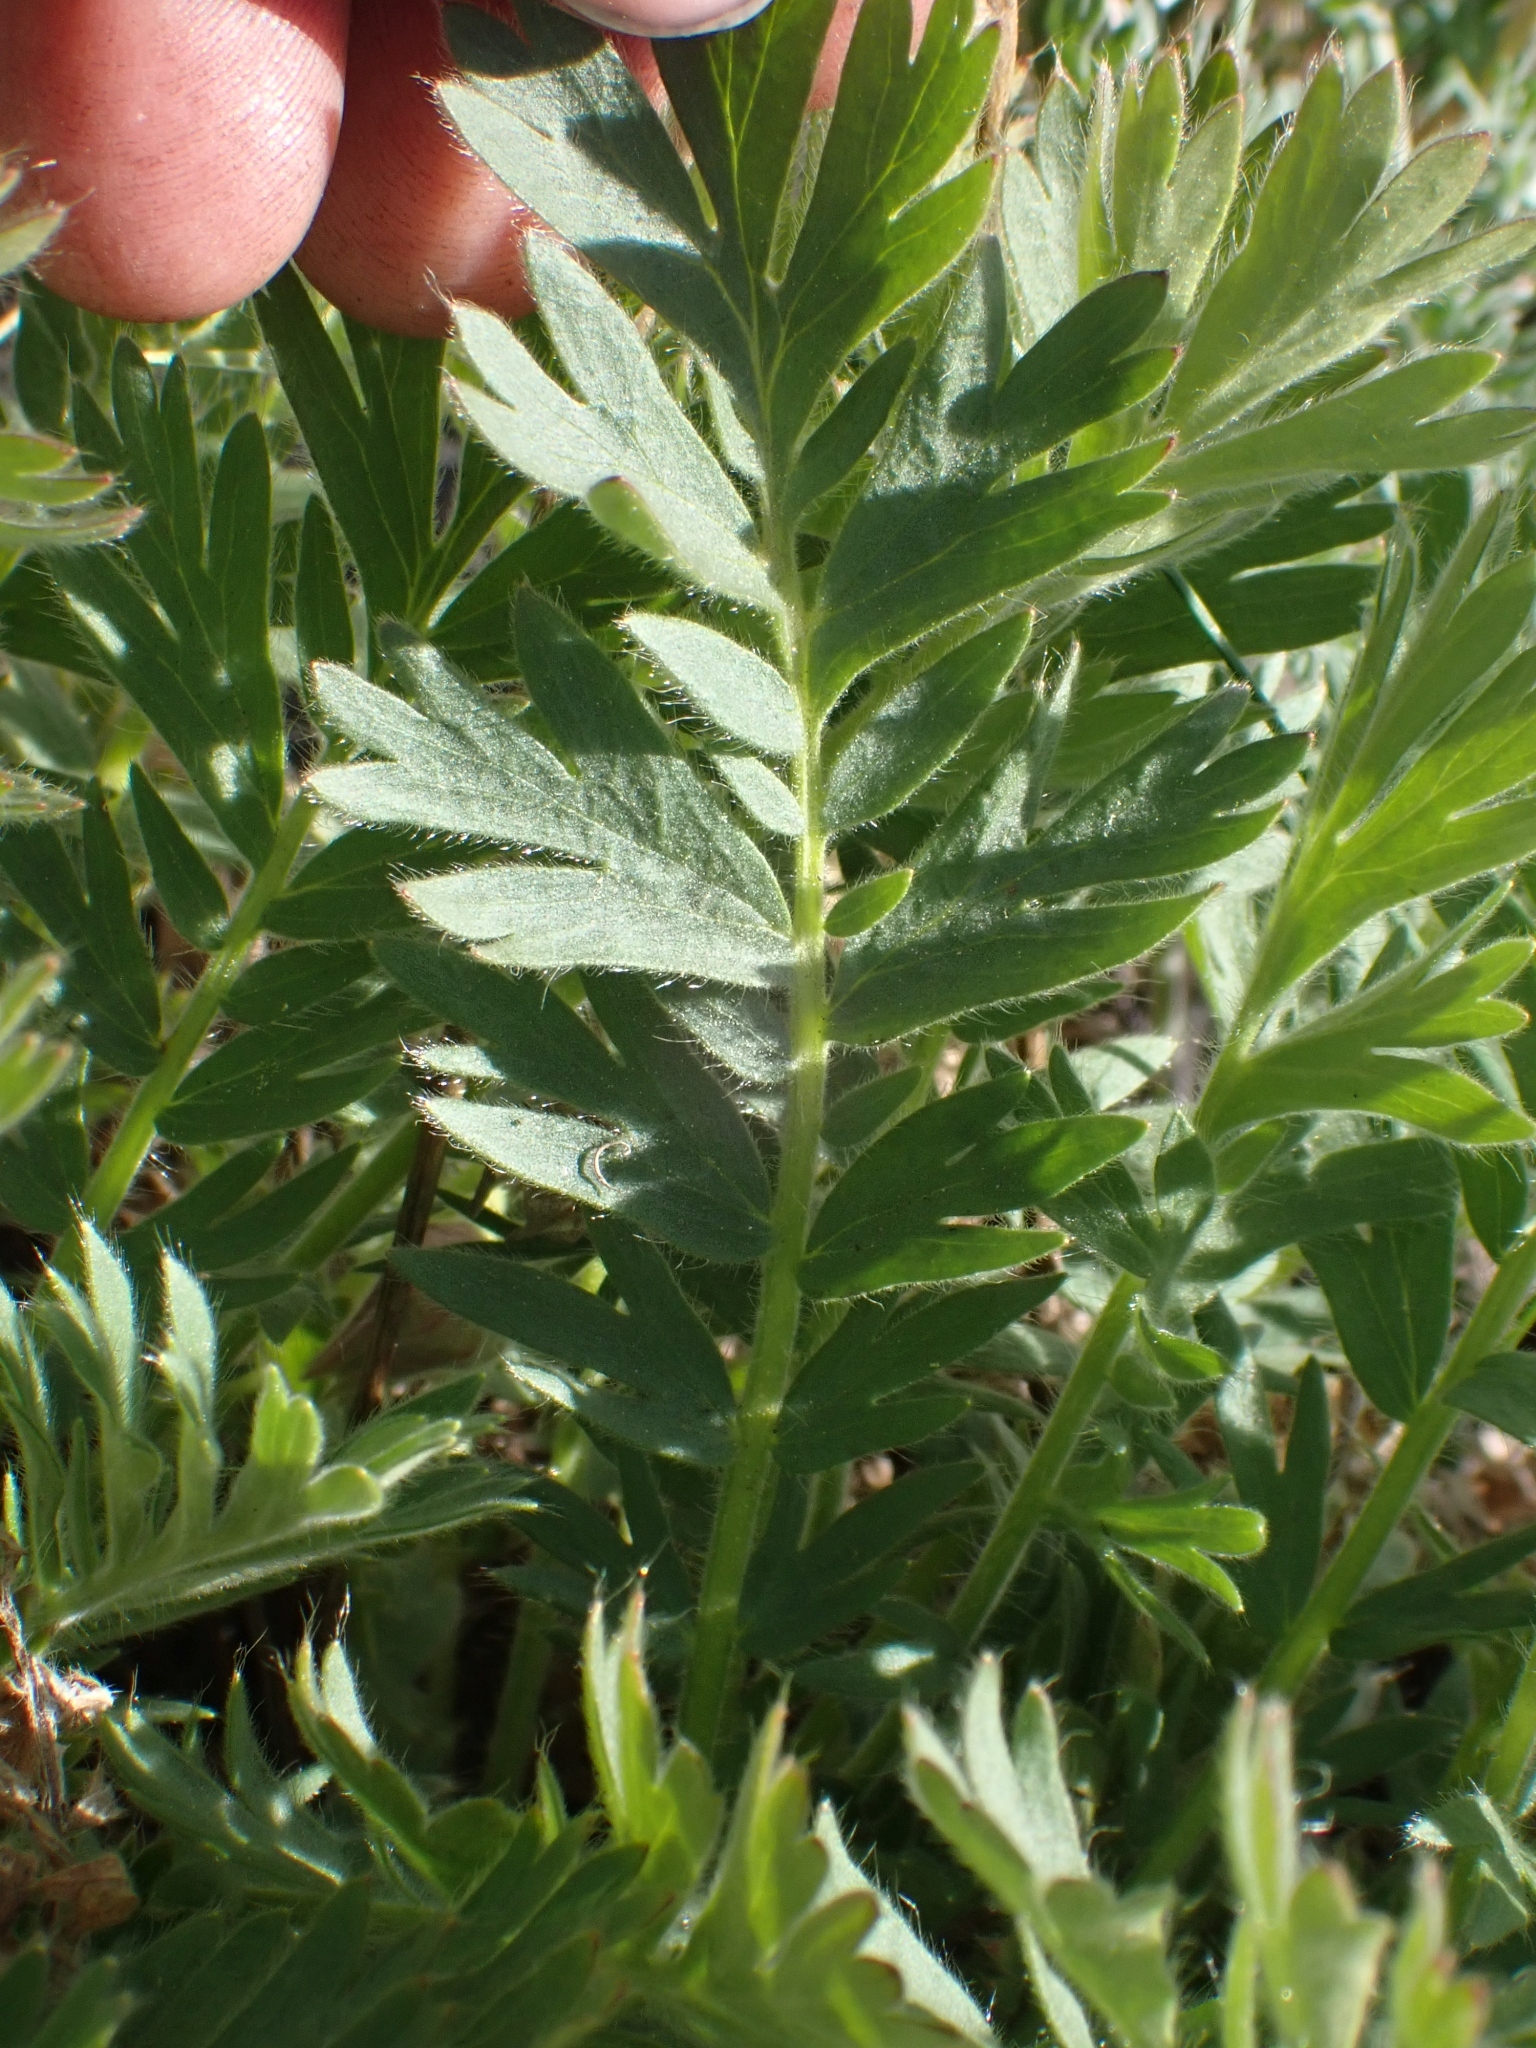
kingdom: Plantae
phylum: Tracheophyta
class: Magnoliopsida
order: Rosales
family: Rosaceae
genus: Geum
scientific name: Geum triflorum
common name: Old man's whiskers
